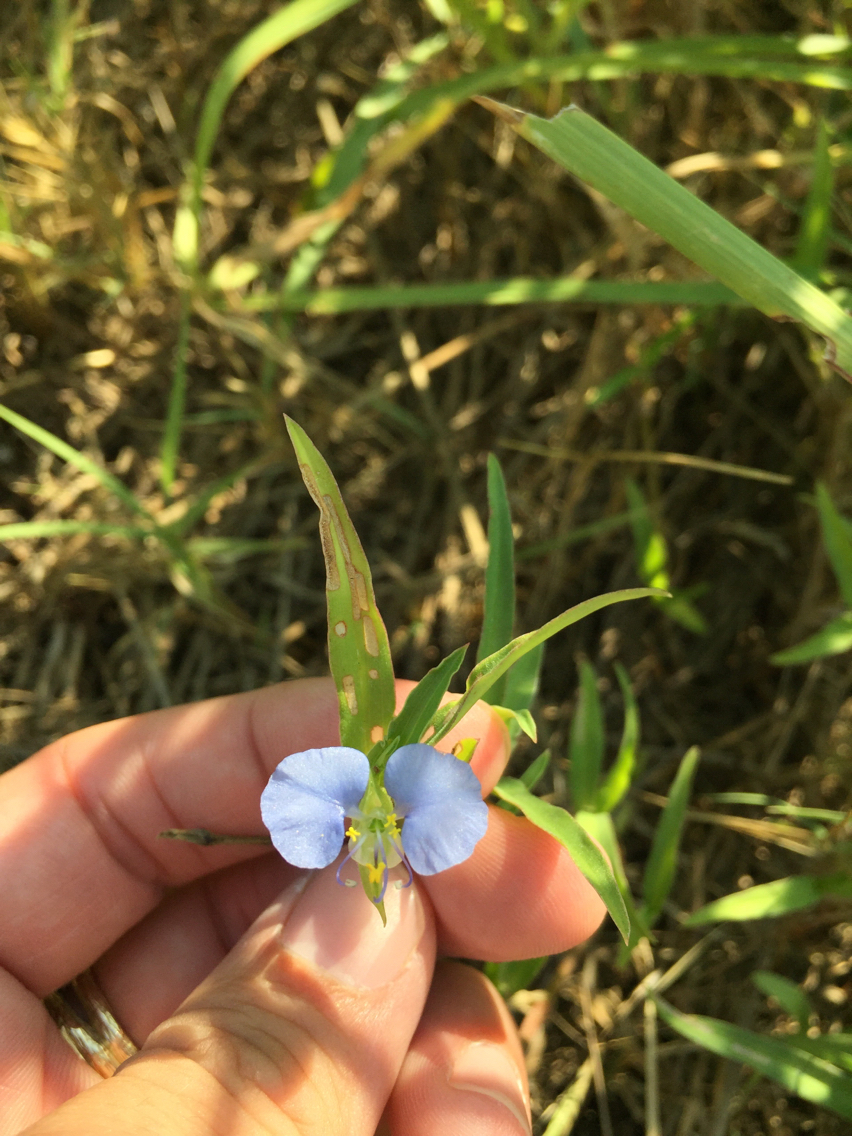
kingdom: Plantae
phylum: Tracheophyta
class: Liliopsida
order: Commelinales
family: Commelinaceae
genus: Commelina
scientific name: Commelina erecta
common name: Blousel blommetjie
